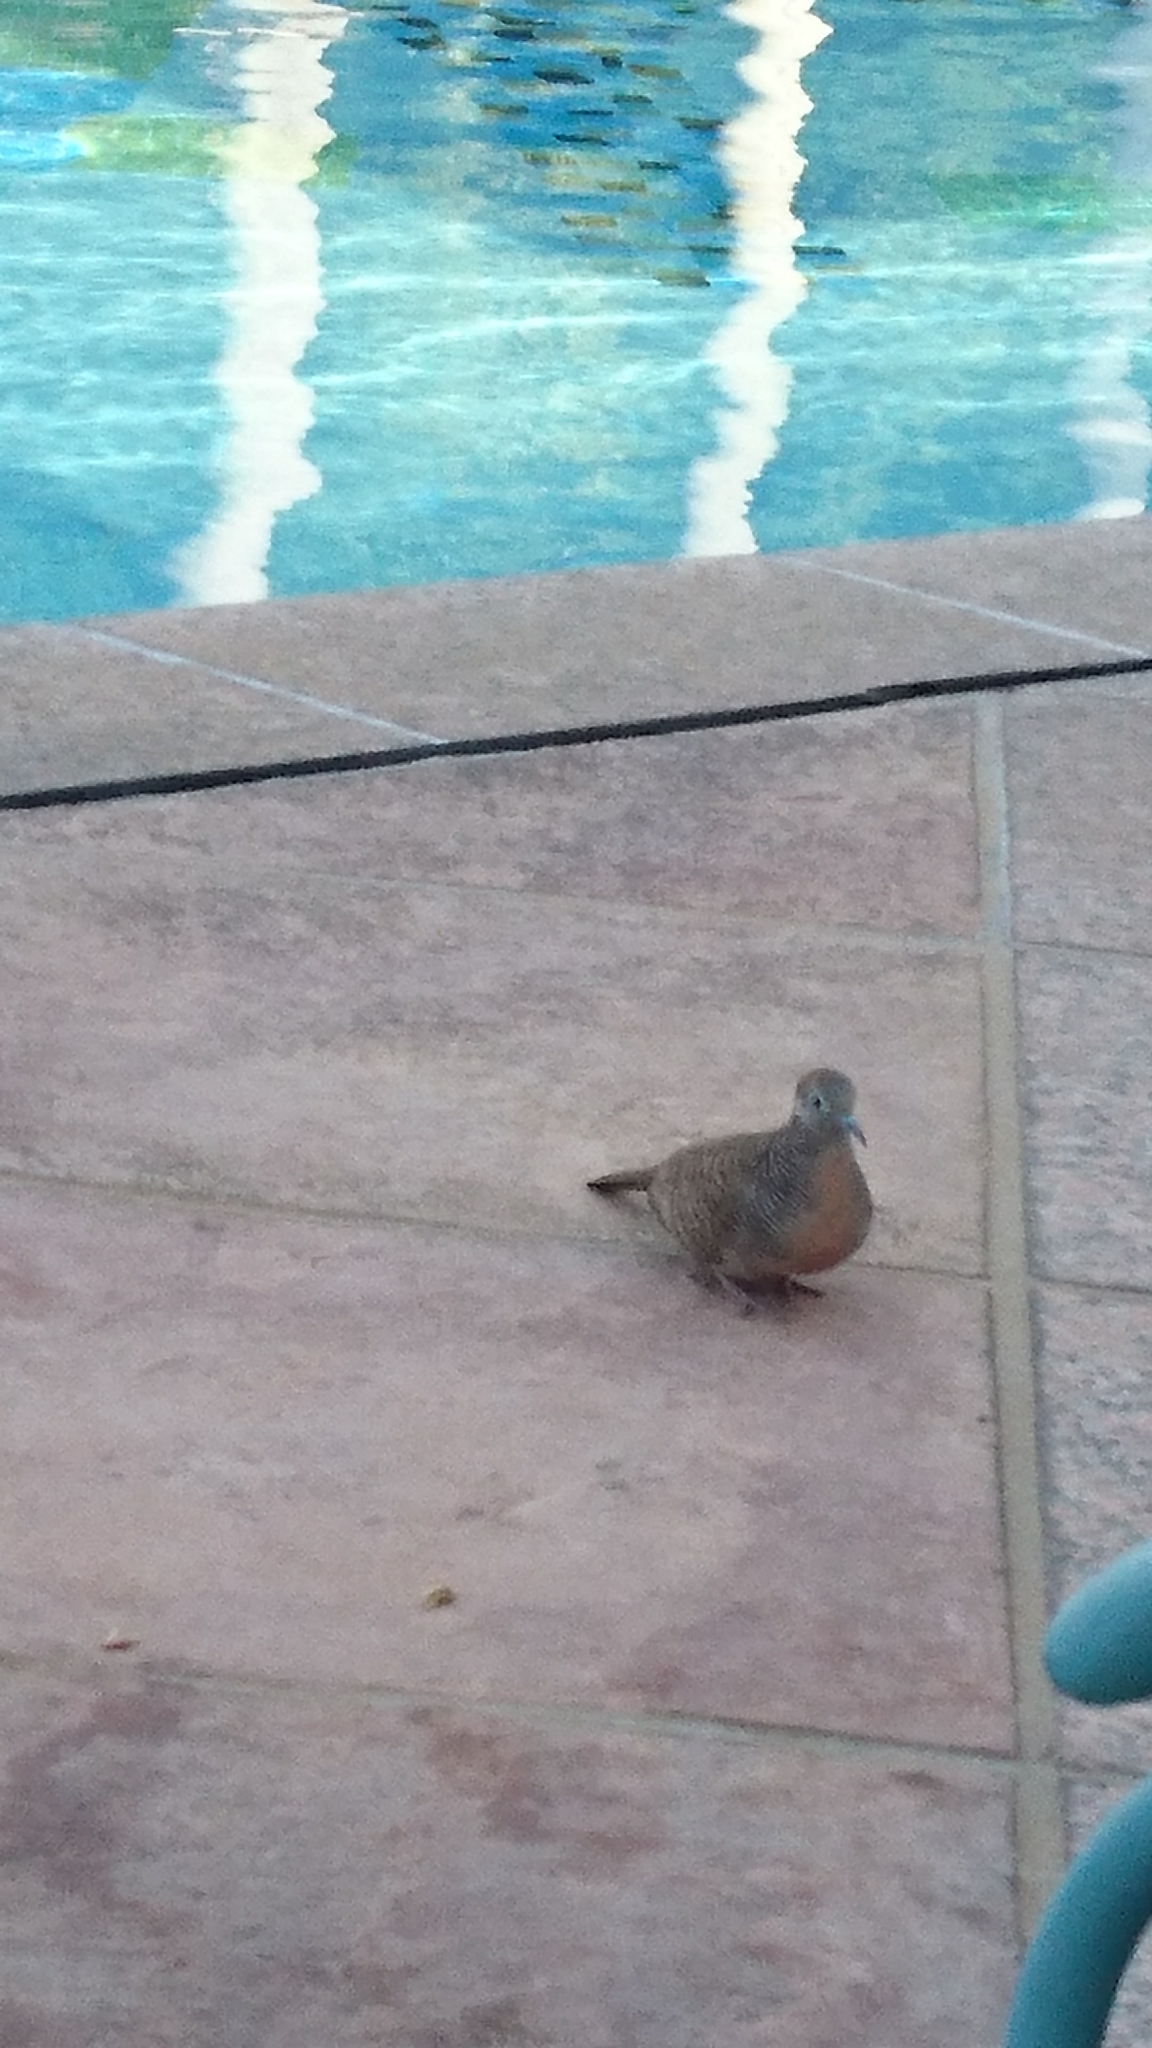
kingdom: Animalia
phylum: Chordata
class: Aves
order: Columbiformes
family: Columbidae
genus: Geopelia
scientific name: Geopelia striata
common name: Zebra dove
